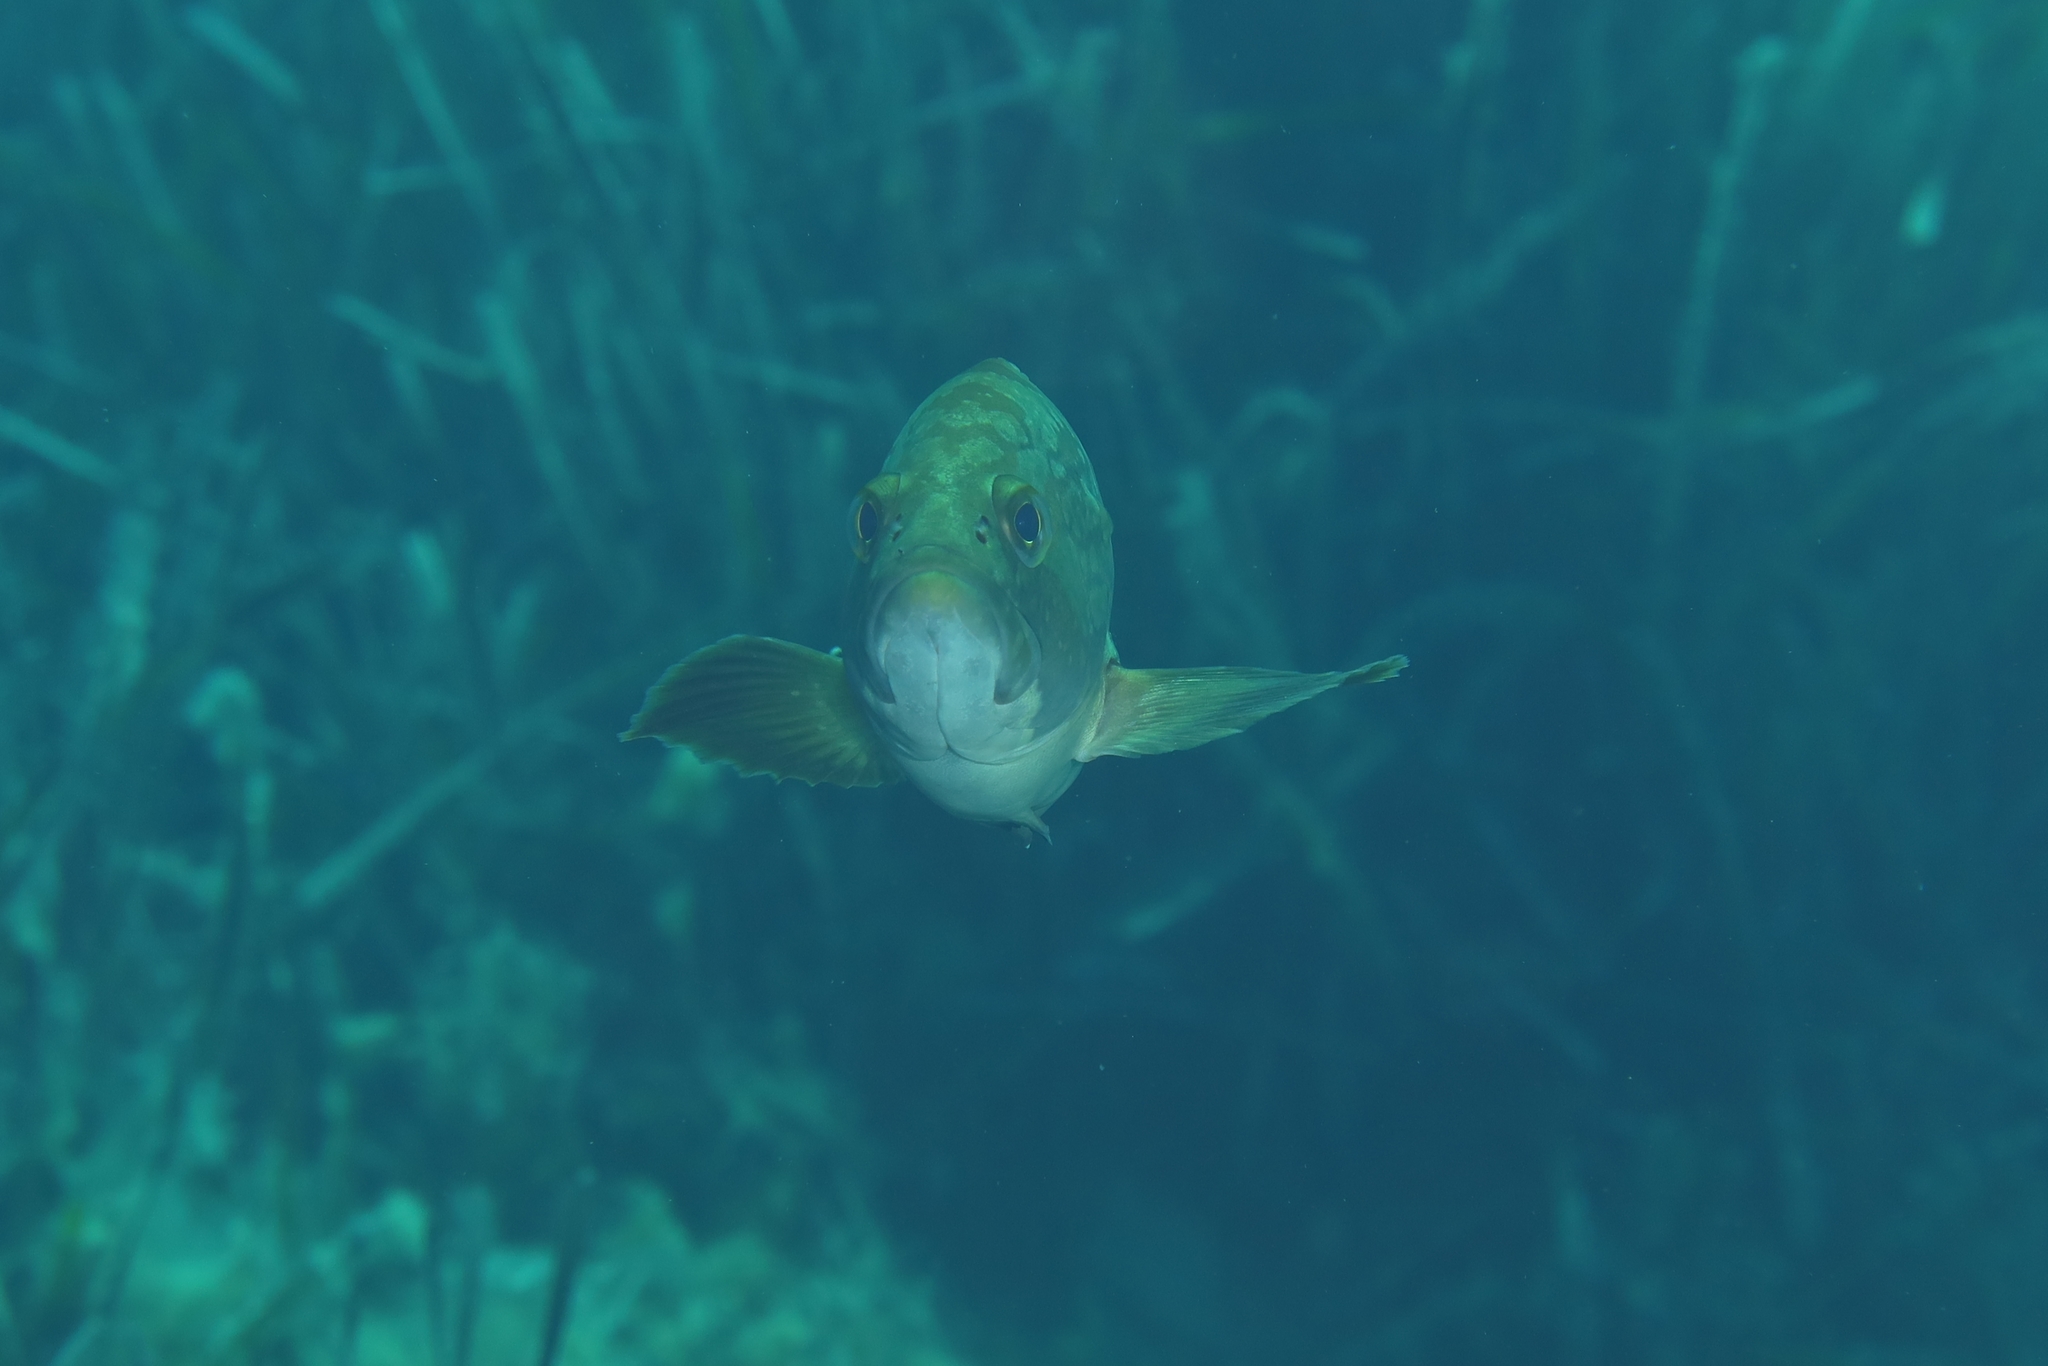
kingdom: Animalia
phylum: Chordata
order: Perciformes
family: Serranidae
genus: Epinephelus
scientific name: Epinephelus marginatus
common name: Dusky grouper
